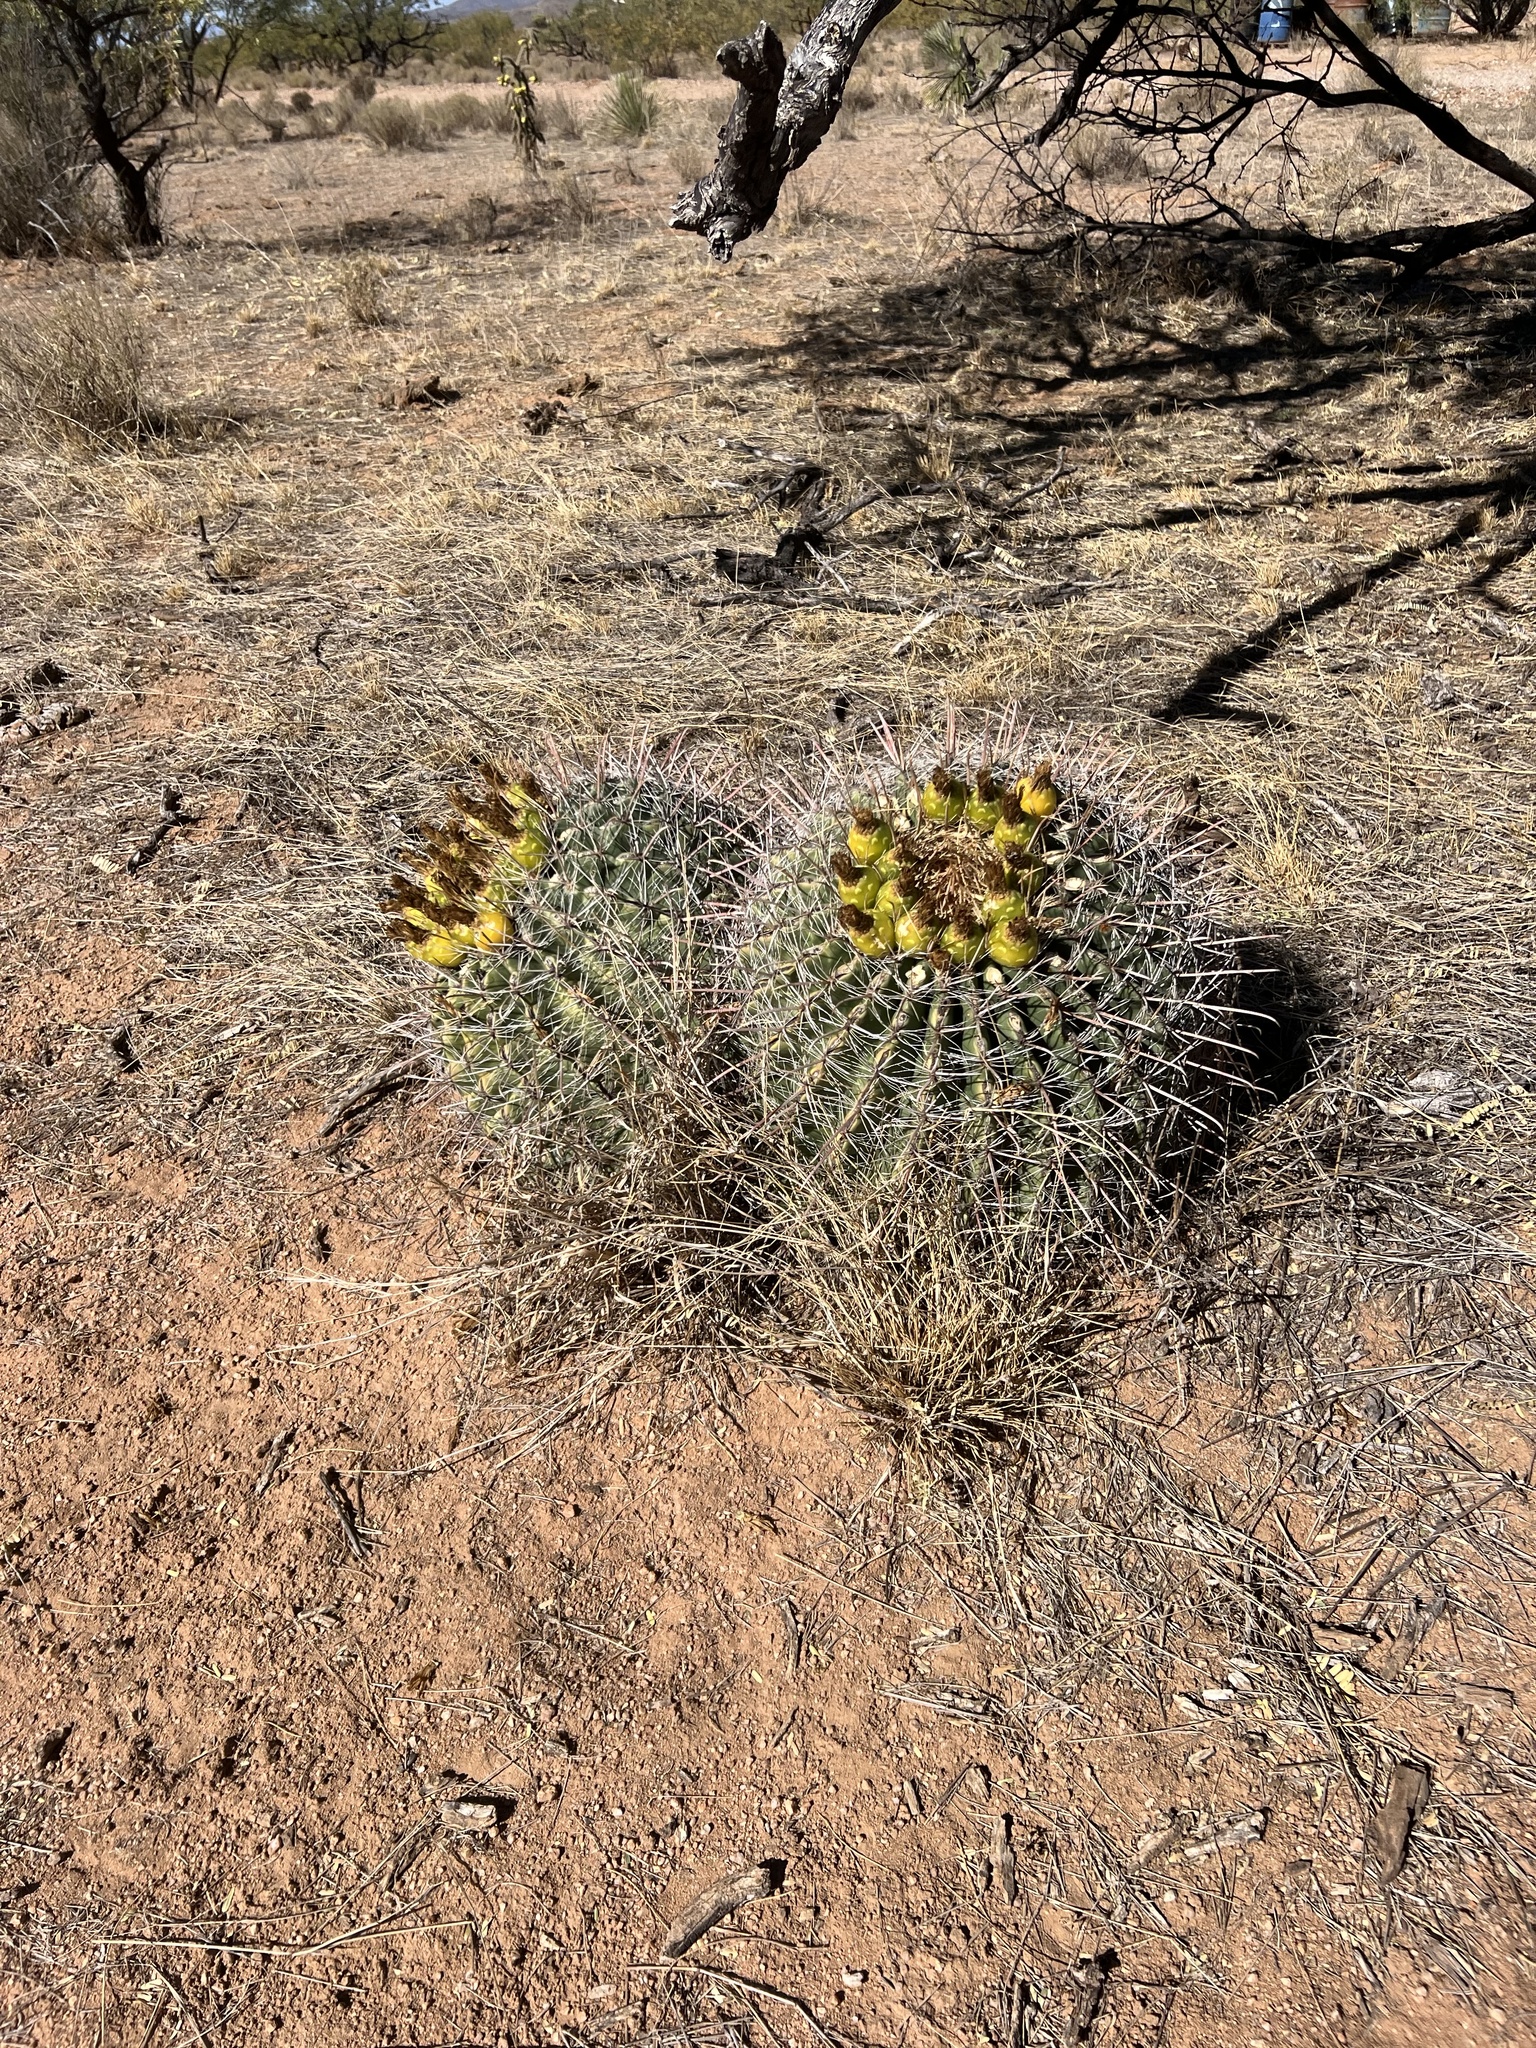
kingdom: Plantae
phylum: Tracheophyta
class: Magnoliopsida
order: Caryophyllales
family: Cactaceae
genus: Ferocactus
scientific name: Ferocactus wislizeni
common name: Candy barrel cactus
